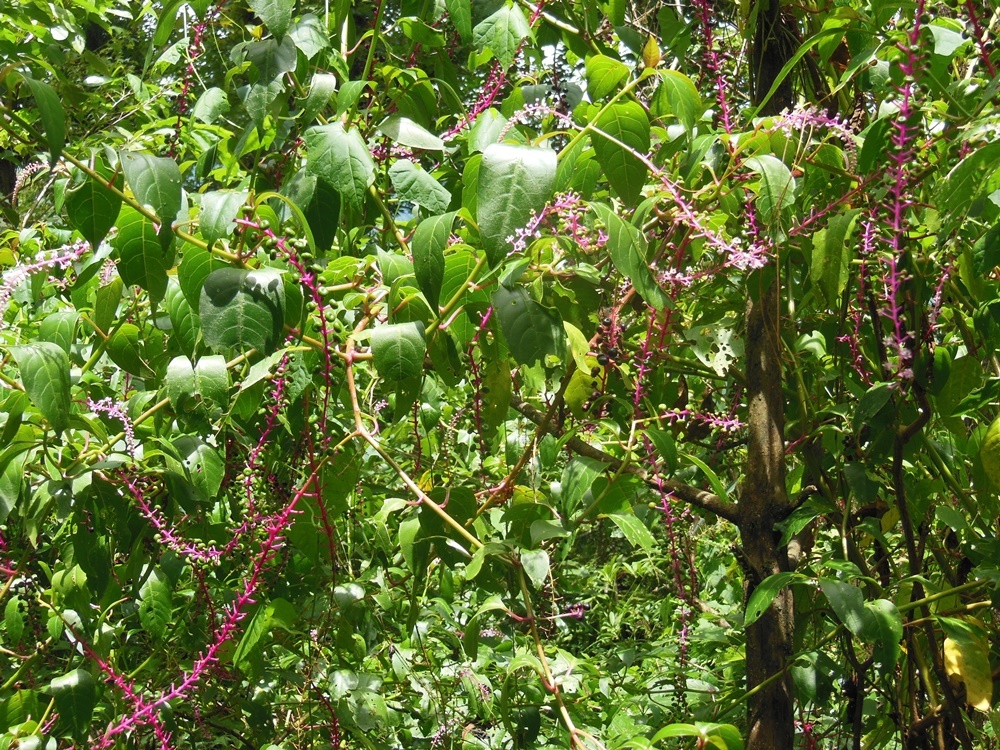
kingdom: Plantae
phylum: Tracheophyta
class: Magnoliopsida
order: Caryophyllales
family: Phytolaccaceae
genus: Phytolacca
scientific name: Phytolacca rivinoides
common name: Venezuelan pokeweed
